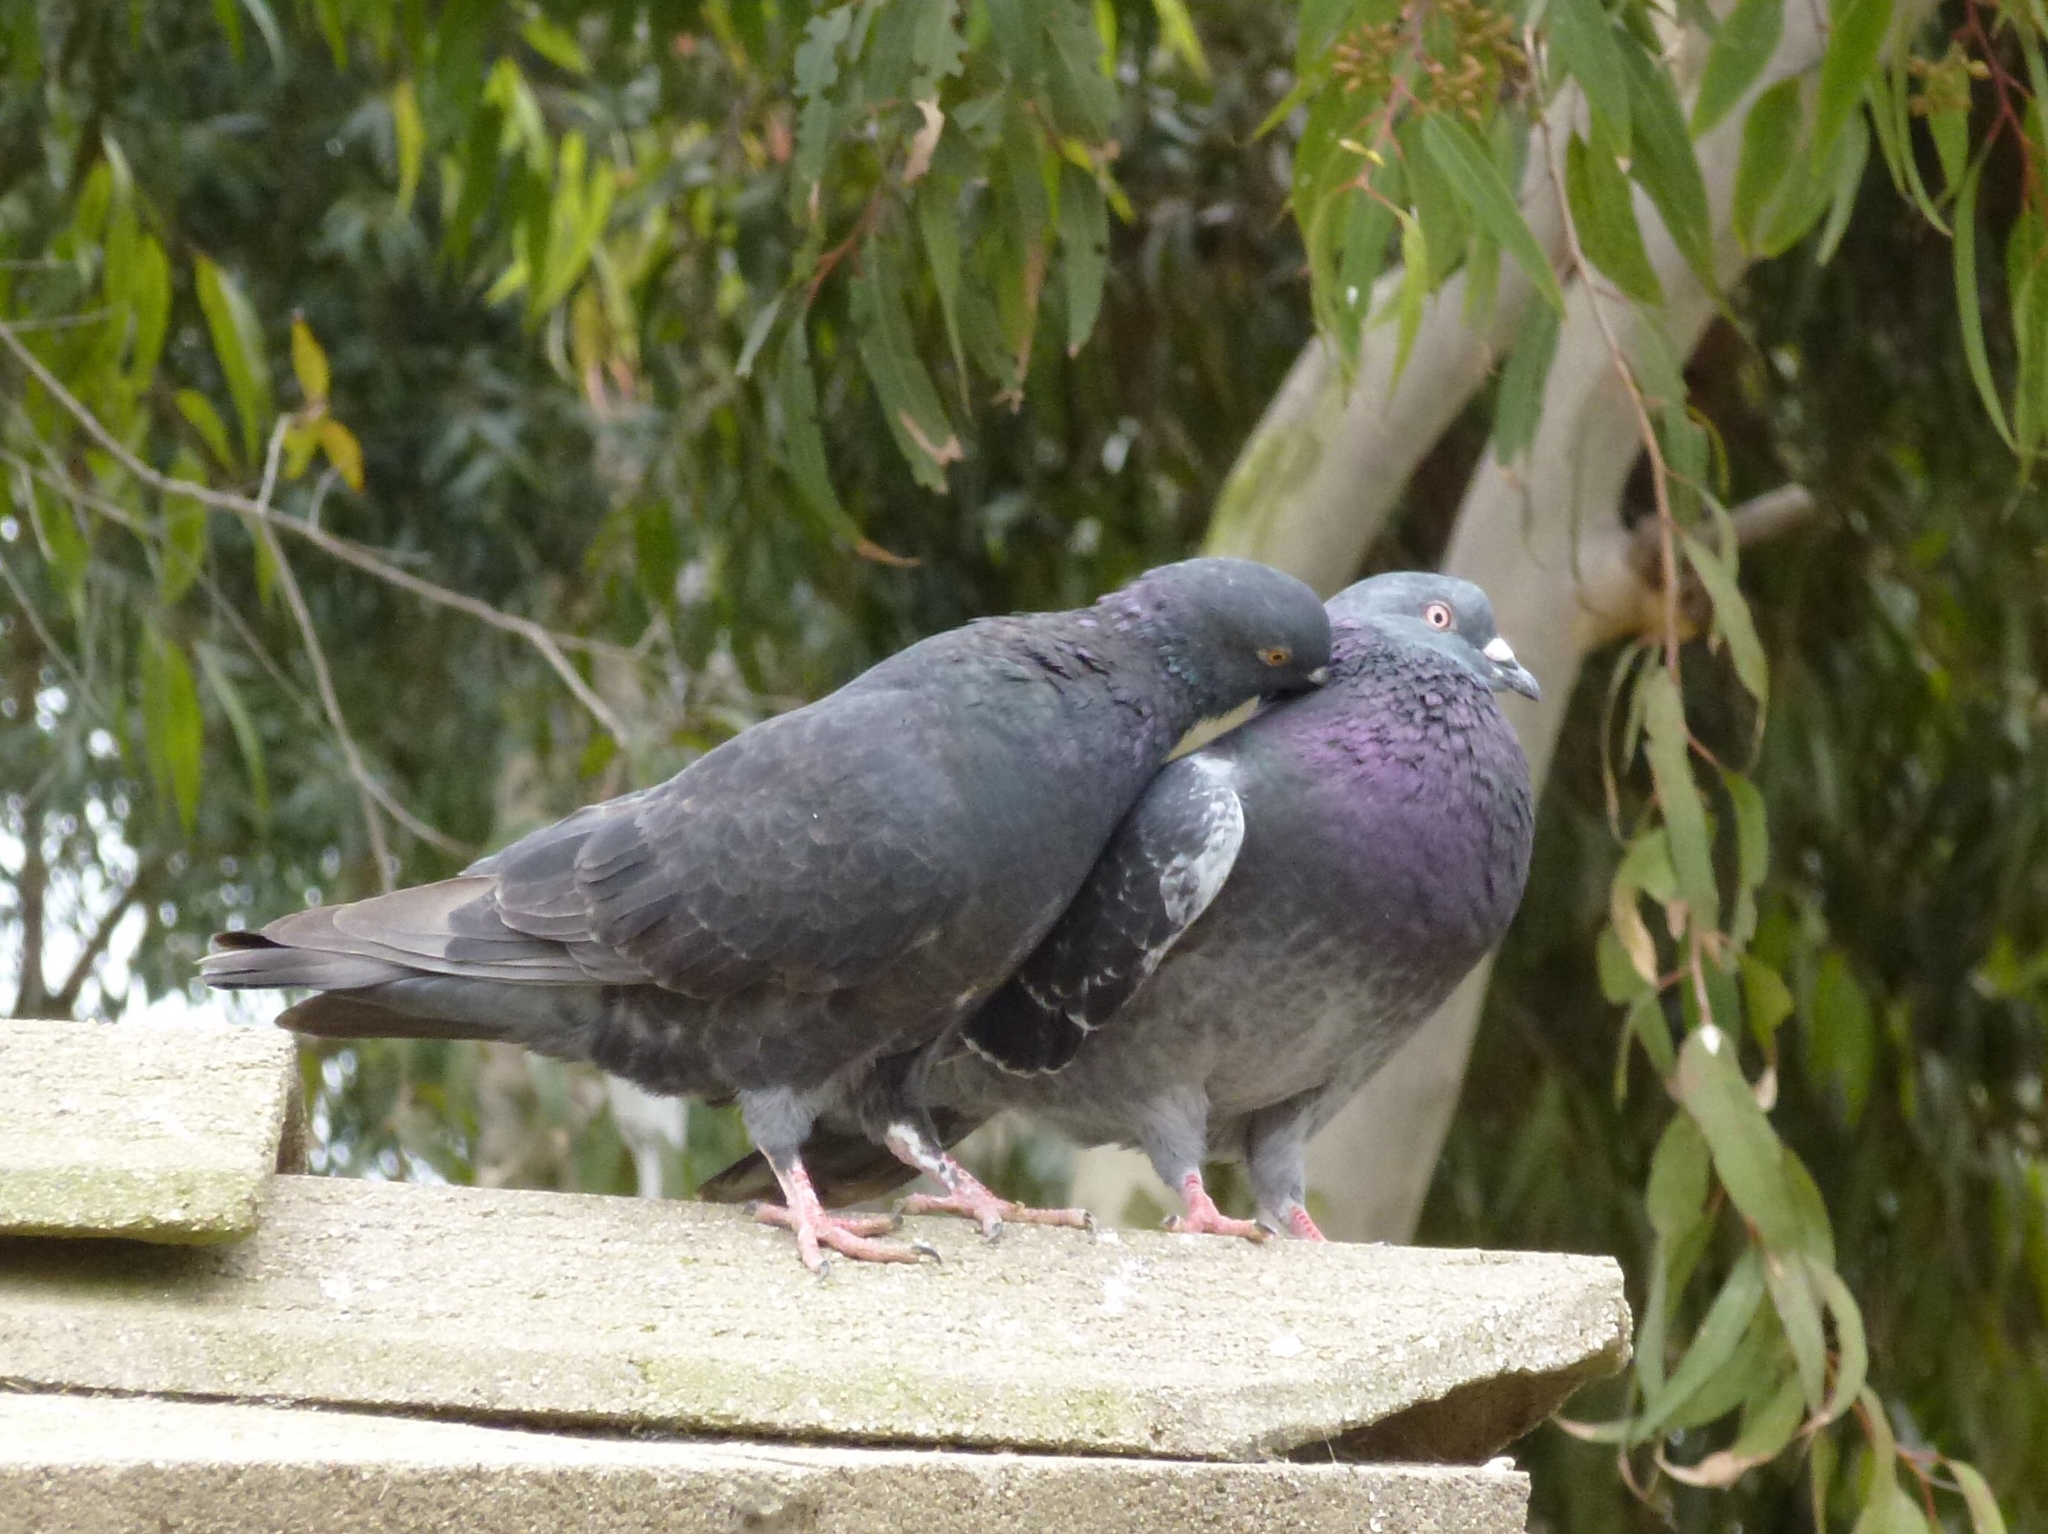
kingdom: Animalia
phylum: Chordata
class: Aves
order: Columbiformes
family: Columbidae
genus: Columba
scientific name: Columba livia
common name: Rock pigeon
